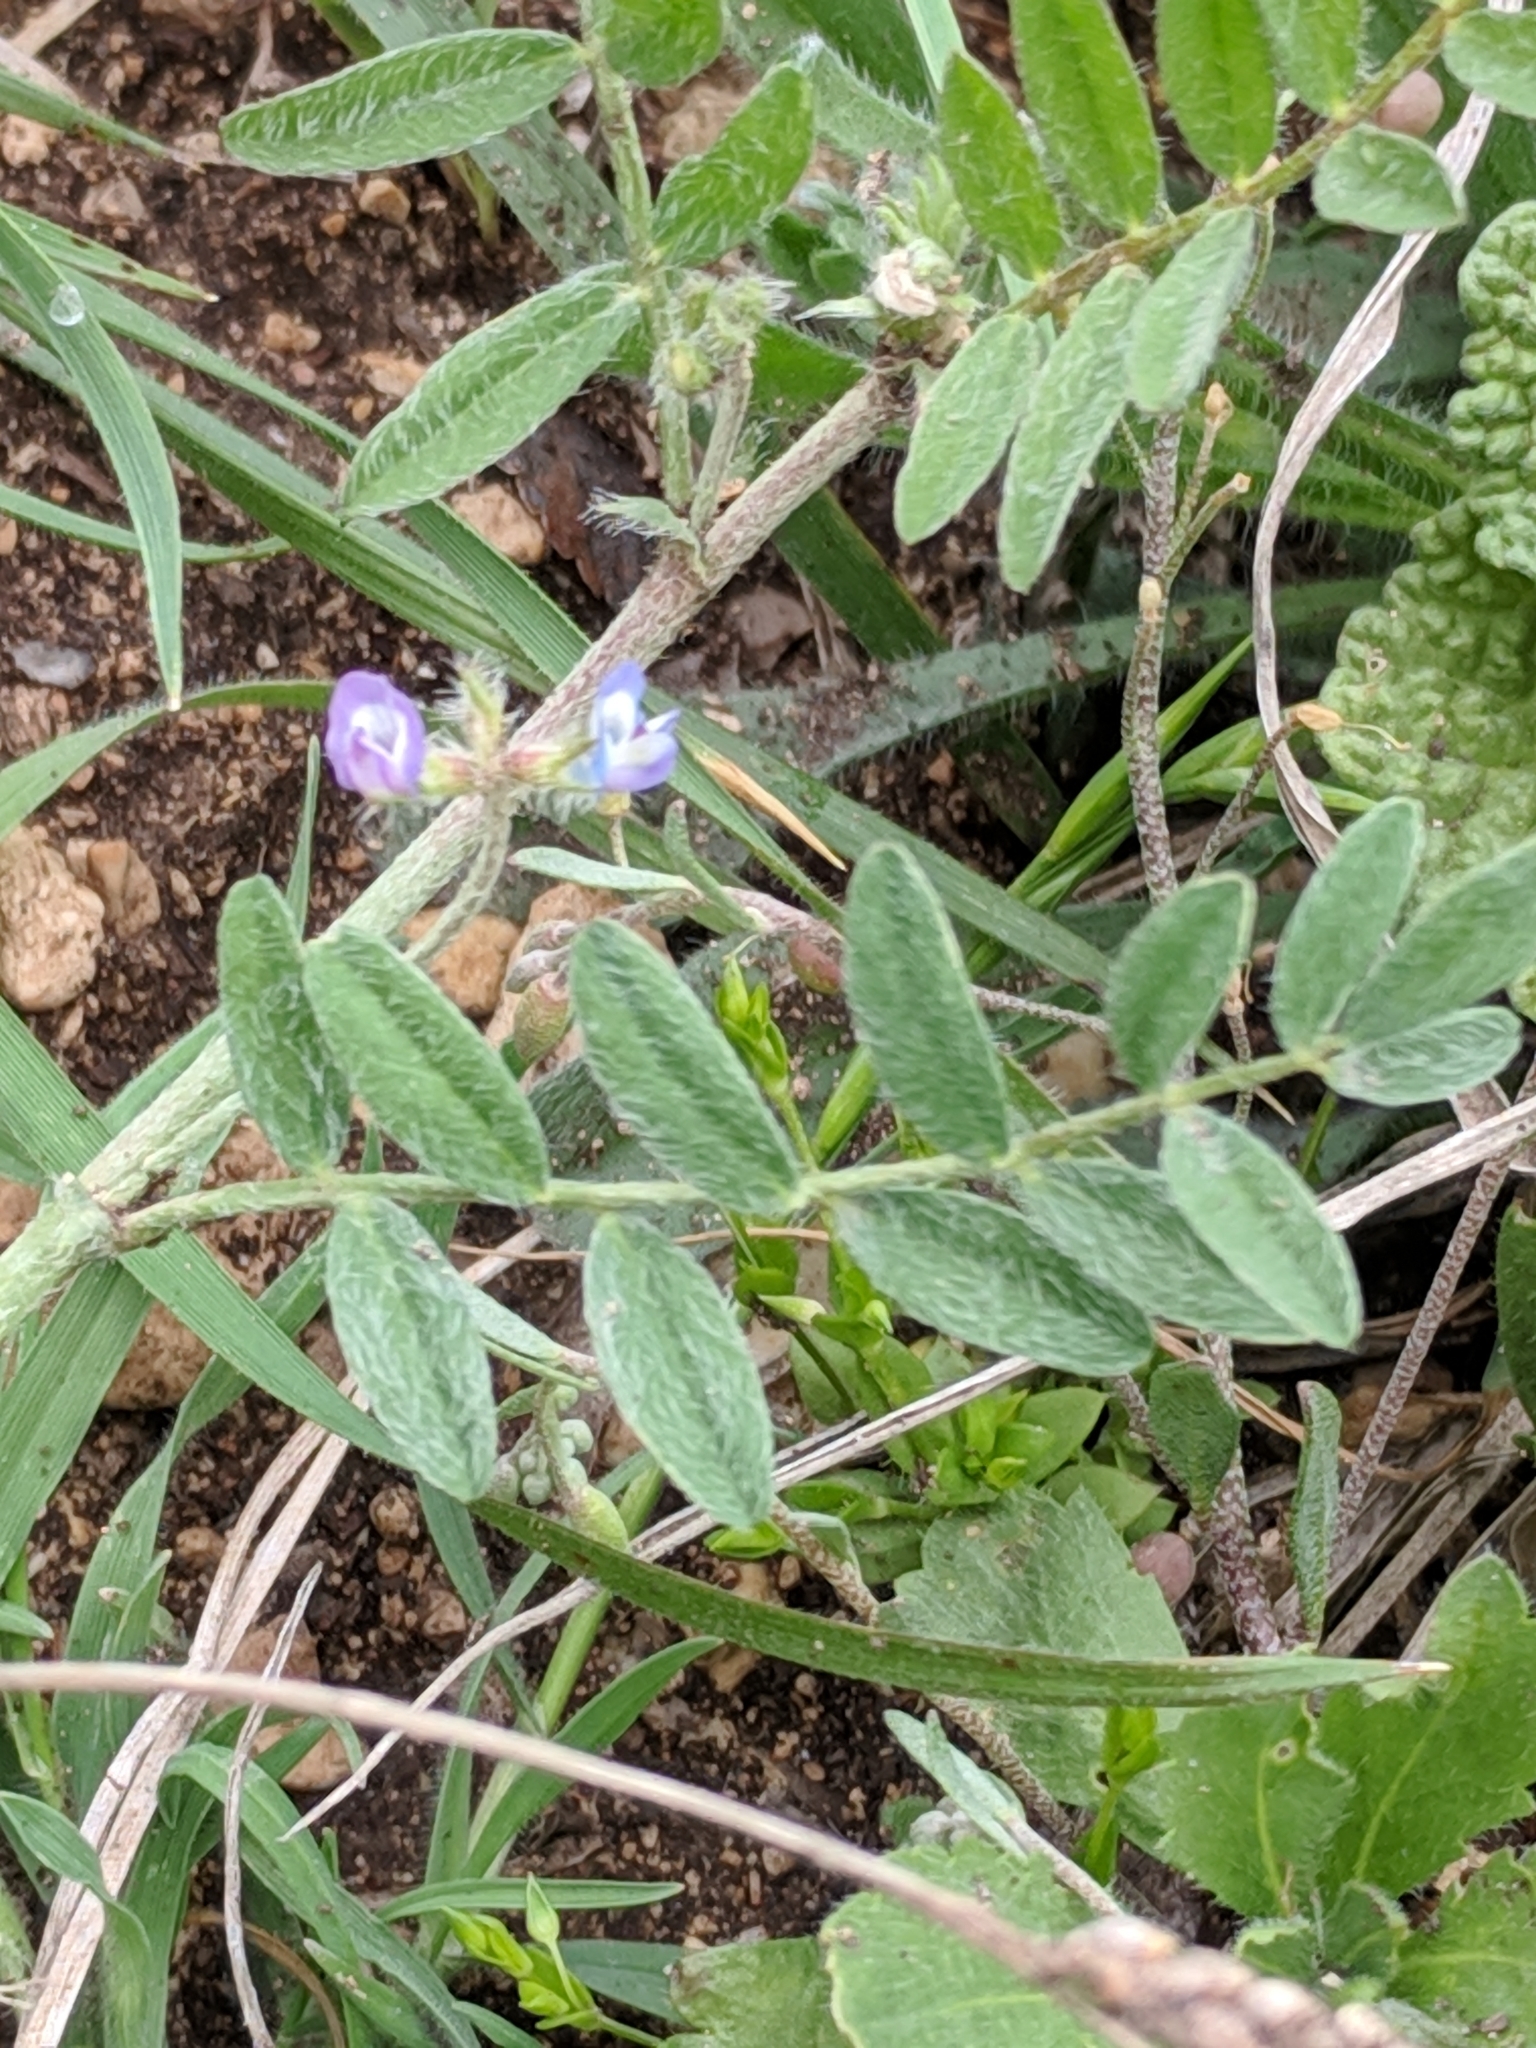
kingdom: Plantae
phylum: Tracheophyta
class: Magnoliopsida
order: Fabales
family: Fabaceae
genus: Astragalus
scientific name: Astragalus nuttallianus
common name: Smallflowered milkvetch
